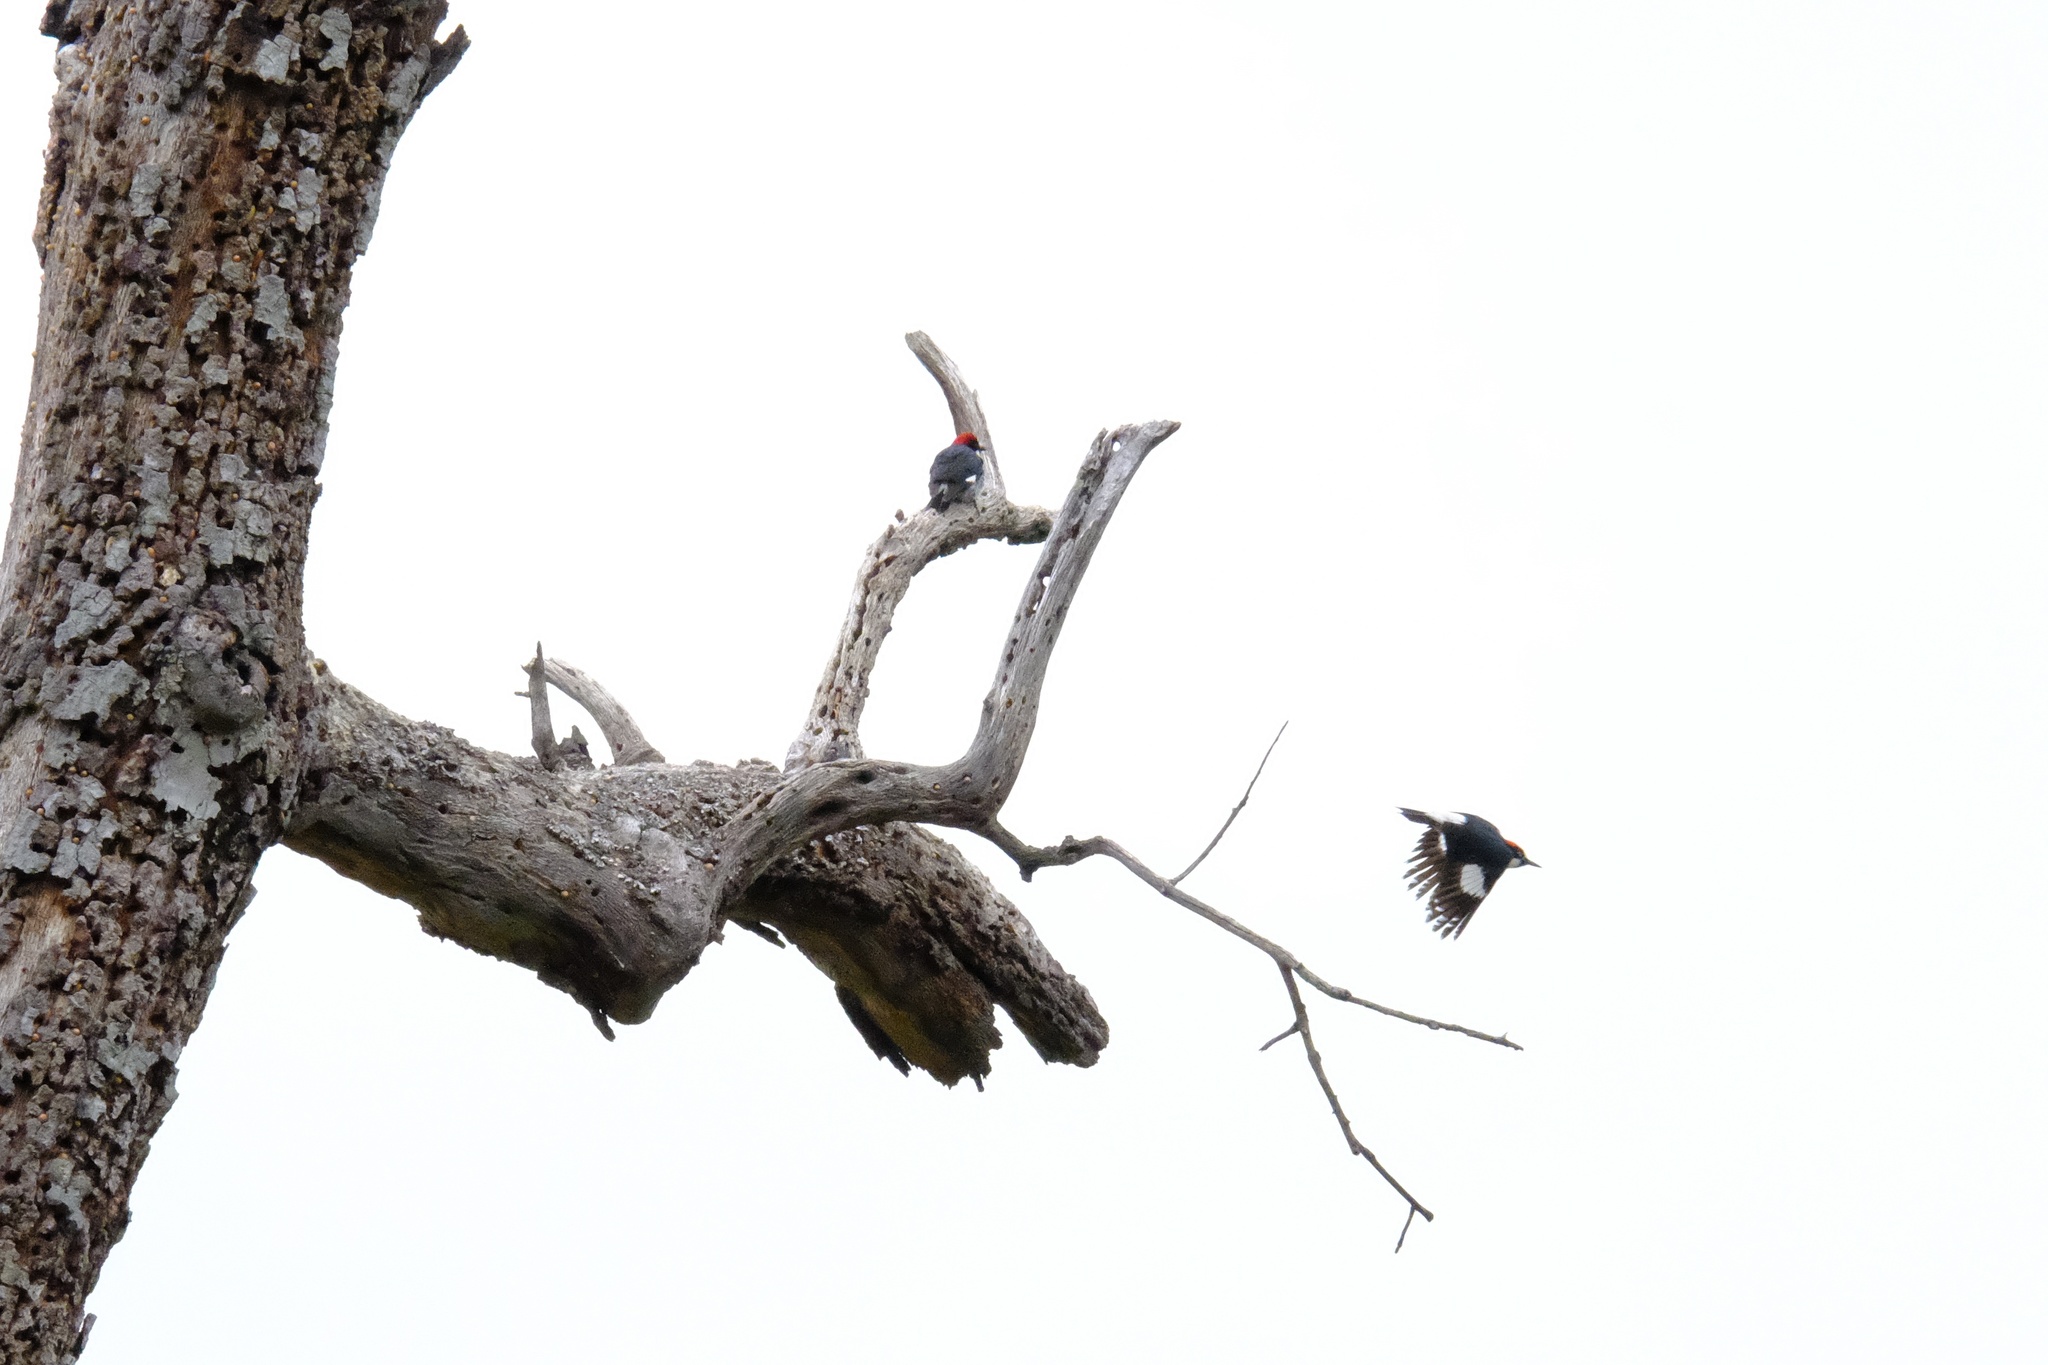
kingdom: Animalia
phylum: Chordata
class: Aves
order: Piciformes
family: Picidae
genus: Melanerpes
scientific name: Melanerpes formicivorus
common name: Acorn woodpecker
